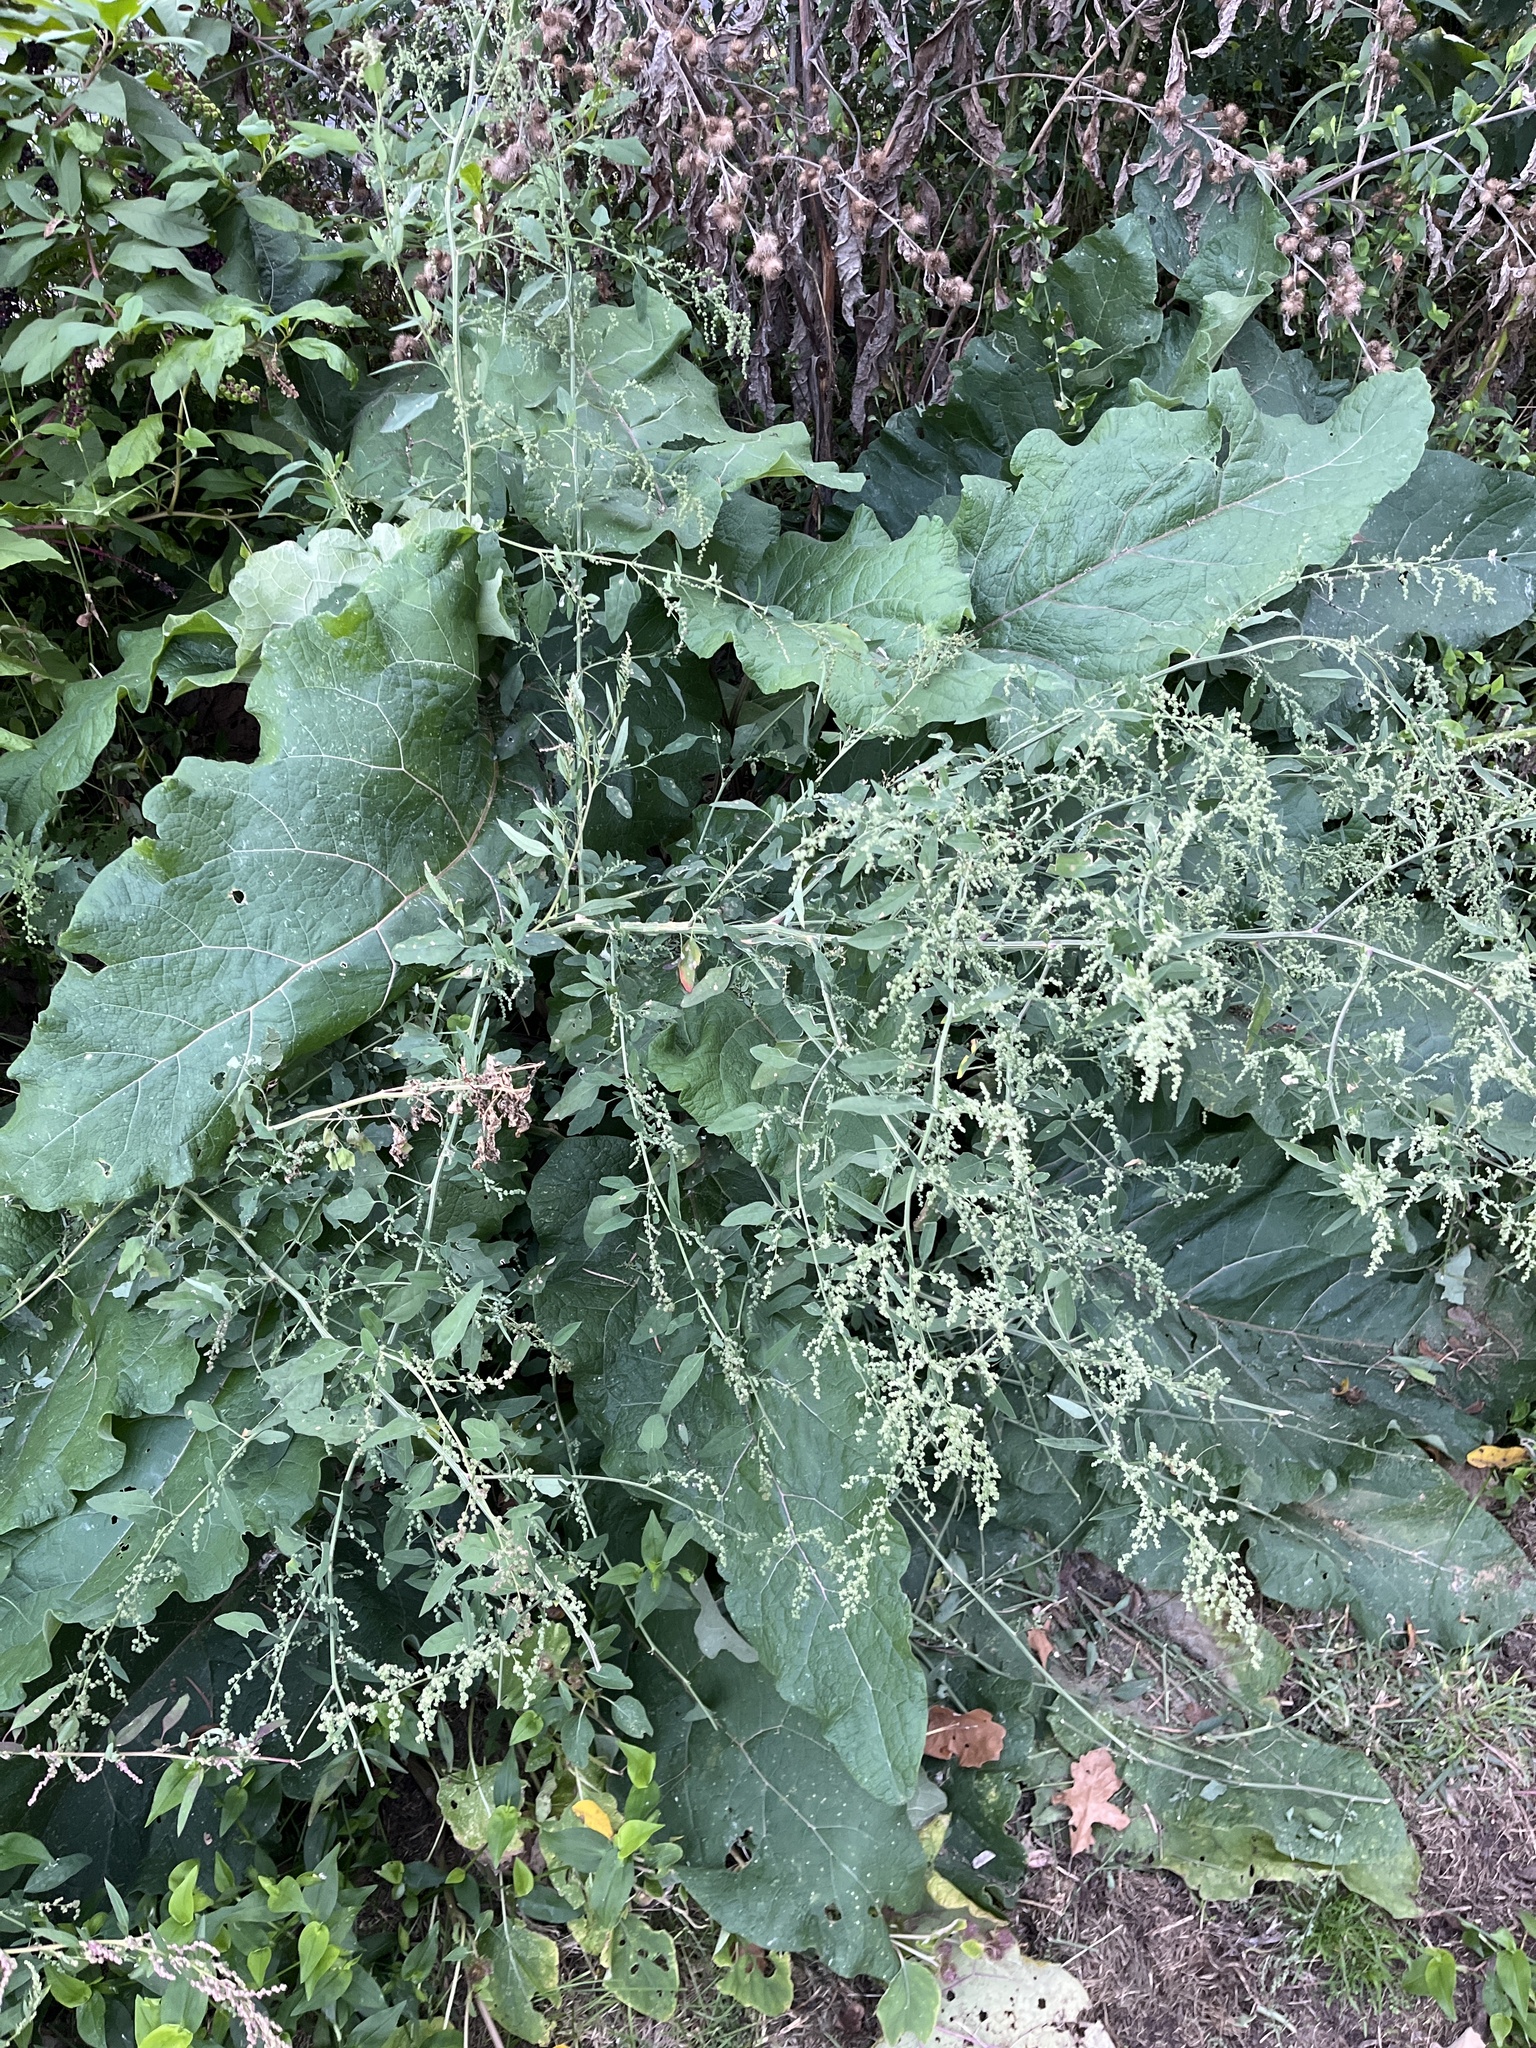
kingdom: Plantae
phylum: Tracheophyta
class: Magnoliopsida
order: Asterales
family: Asteraceae
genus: Arctium
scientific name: Arctium
